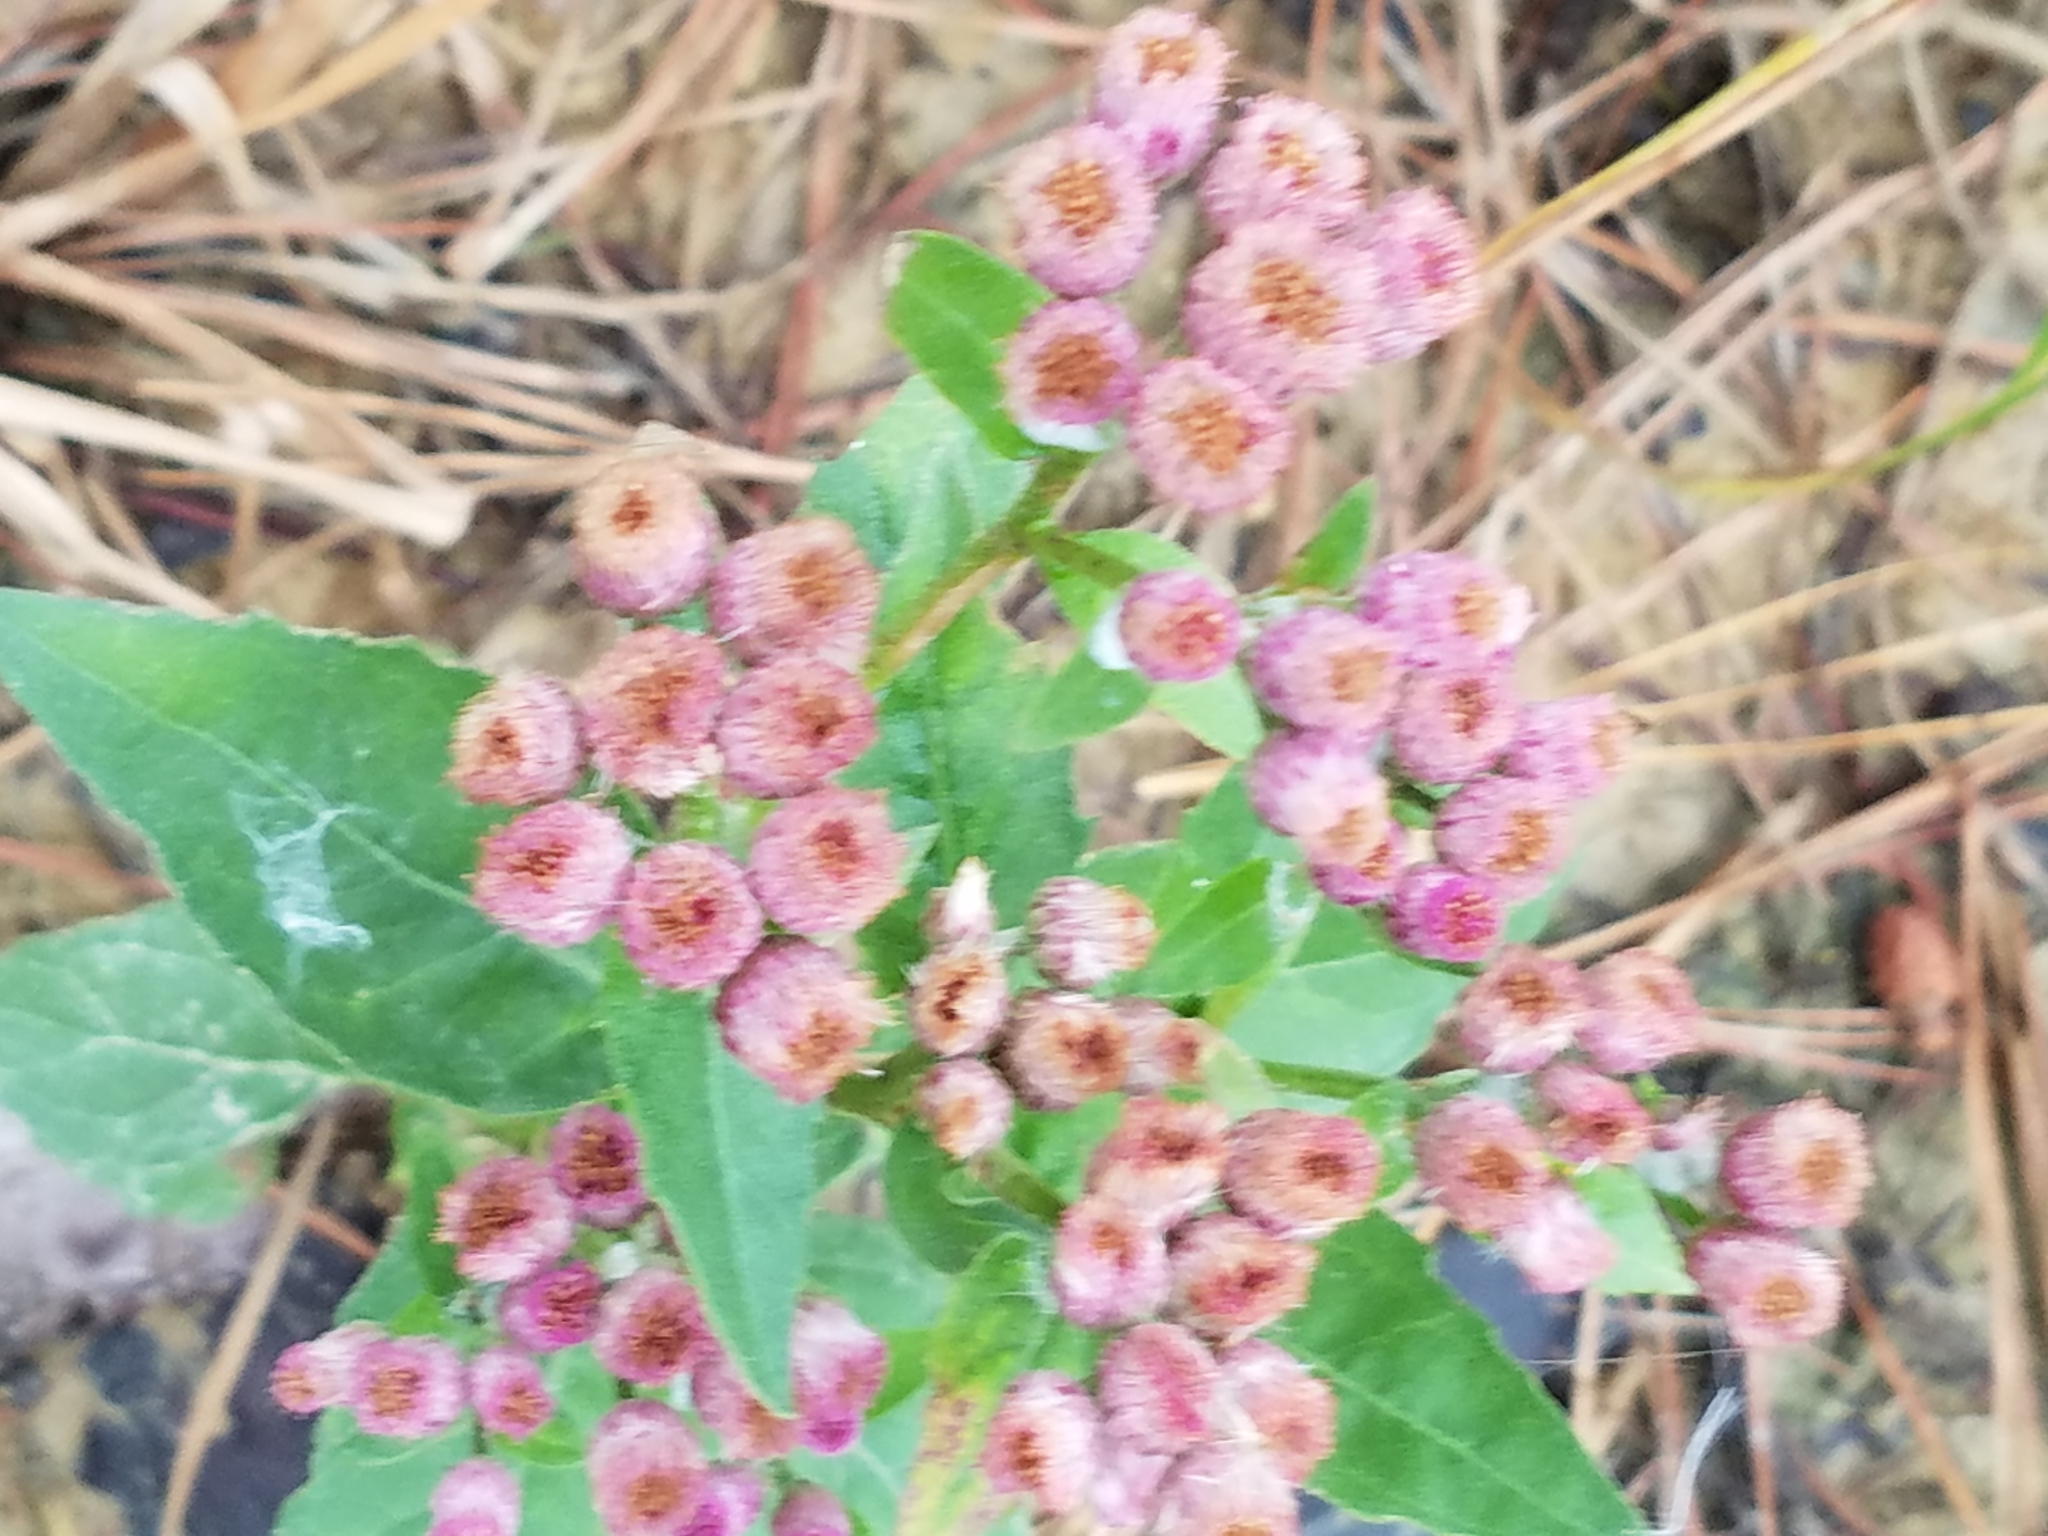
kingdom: Plantae
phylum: Tracheophyta
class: Magnoliopsida
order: Asterales
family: Asteraceae
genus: Pluchea
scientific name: Pluchea odorata
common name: Saltmarsh fleabane
